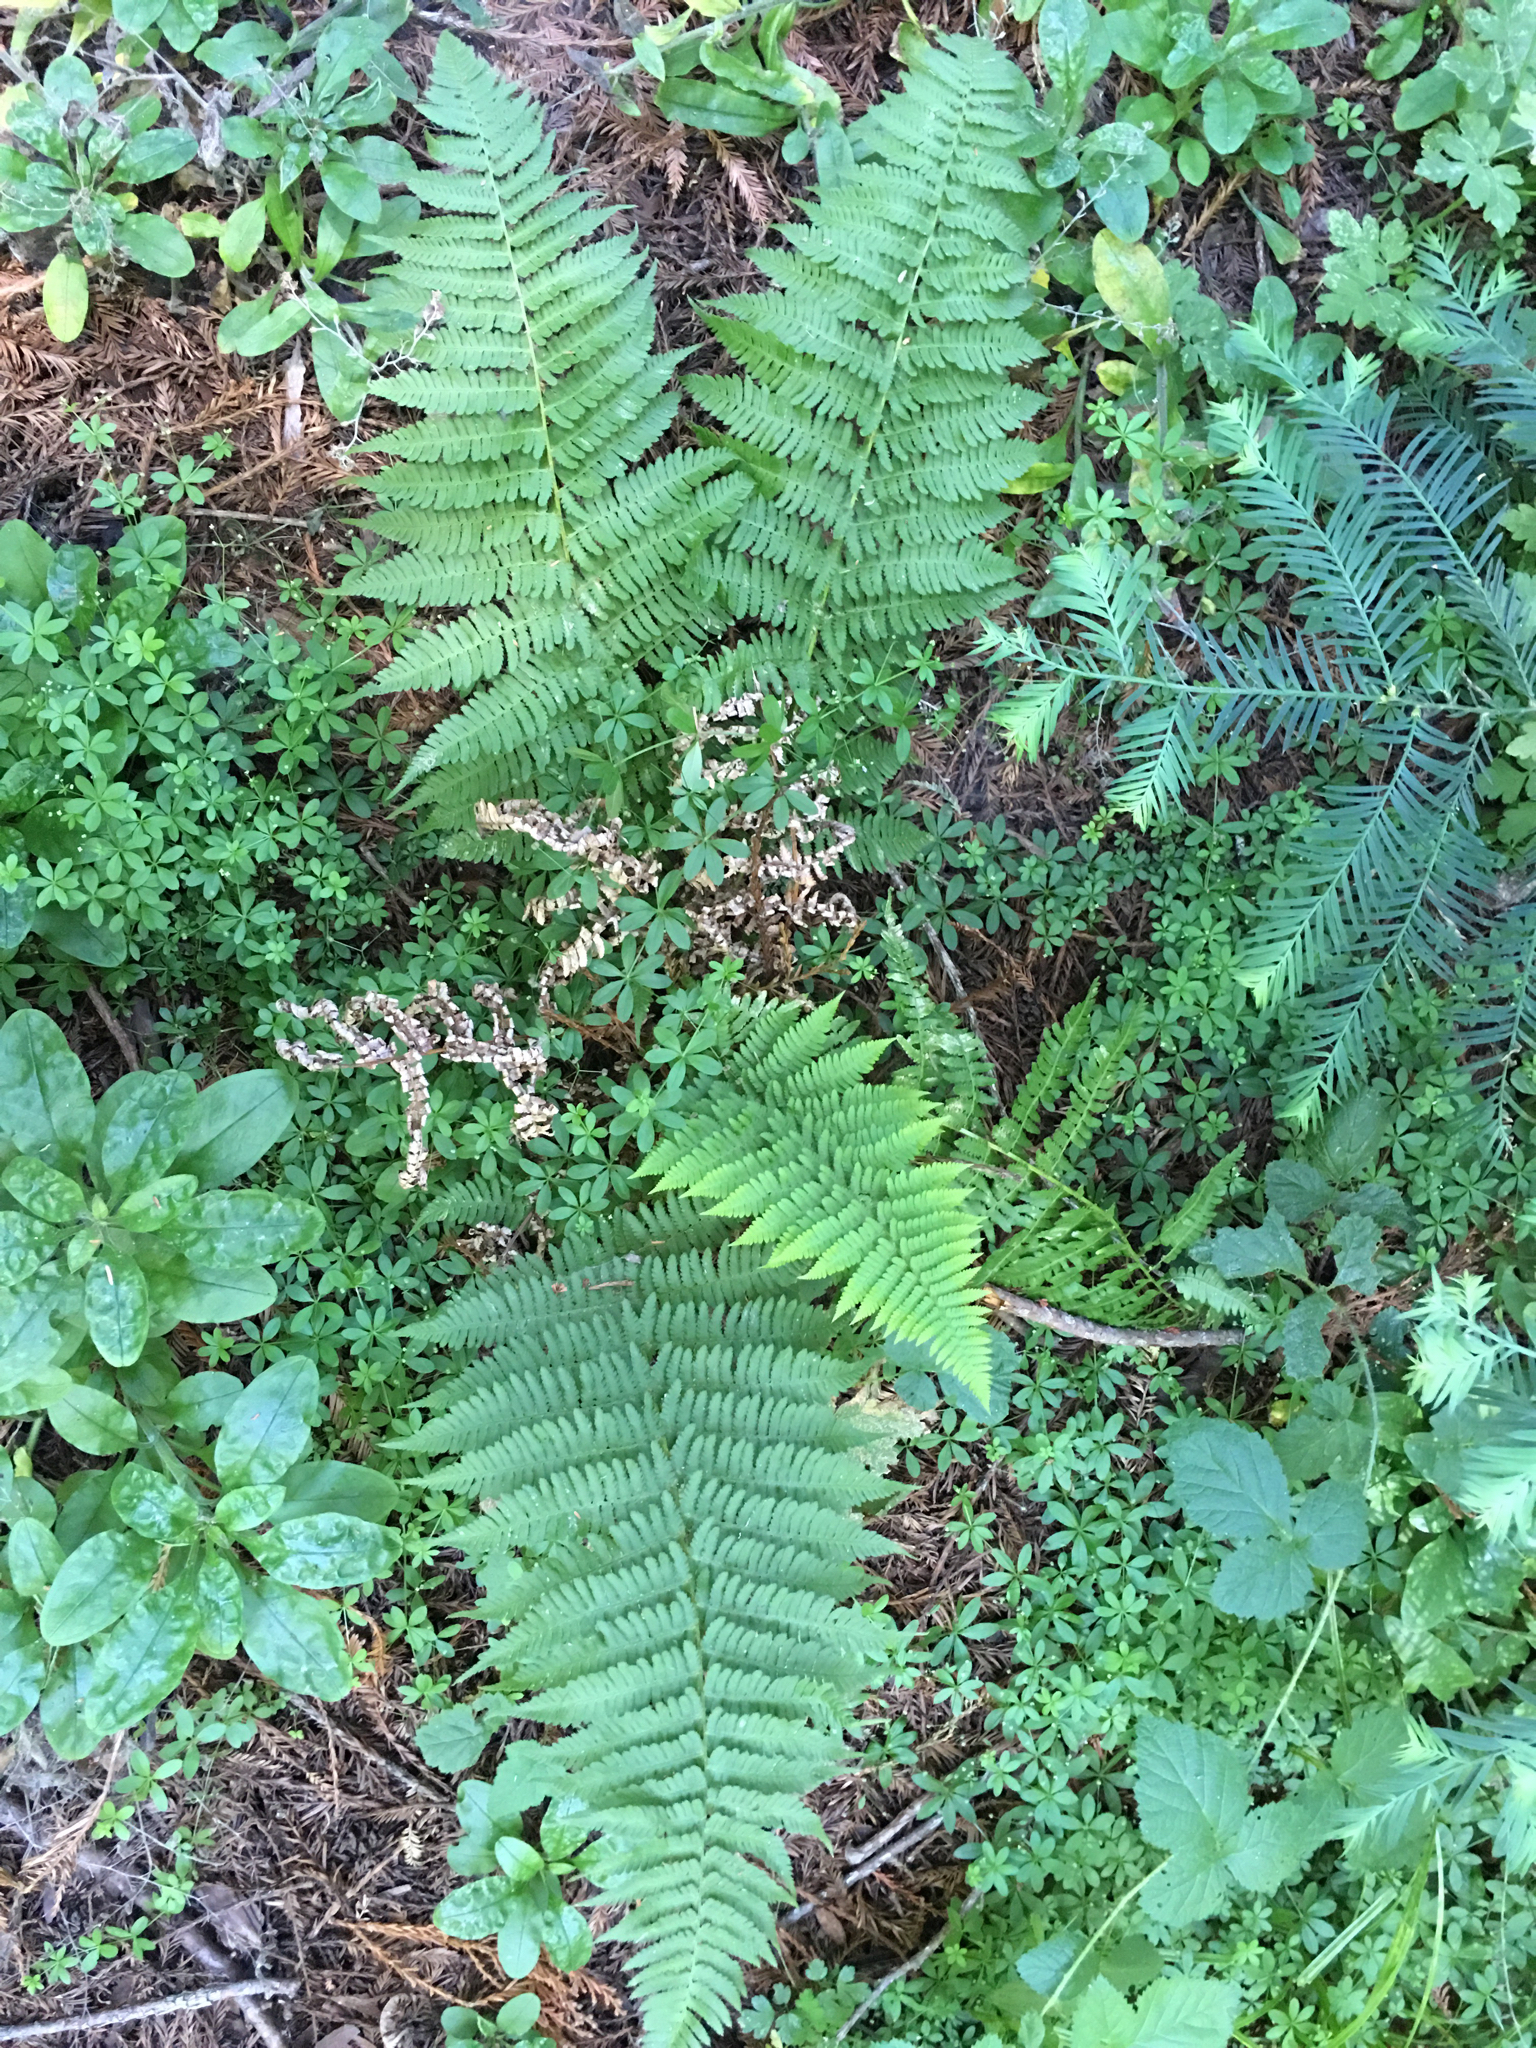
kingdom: Plantae
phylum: Tracheophyta
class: Polypodiopsida
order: Polypodiales
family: Dryopteridaceae
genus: Dryopteris
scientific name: Dryopteris arguta
